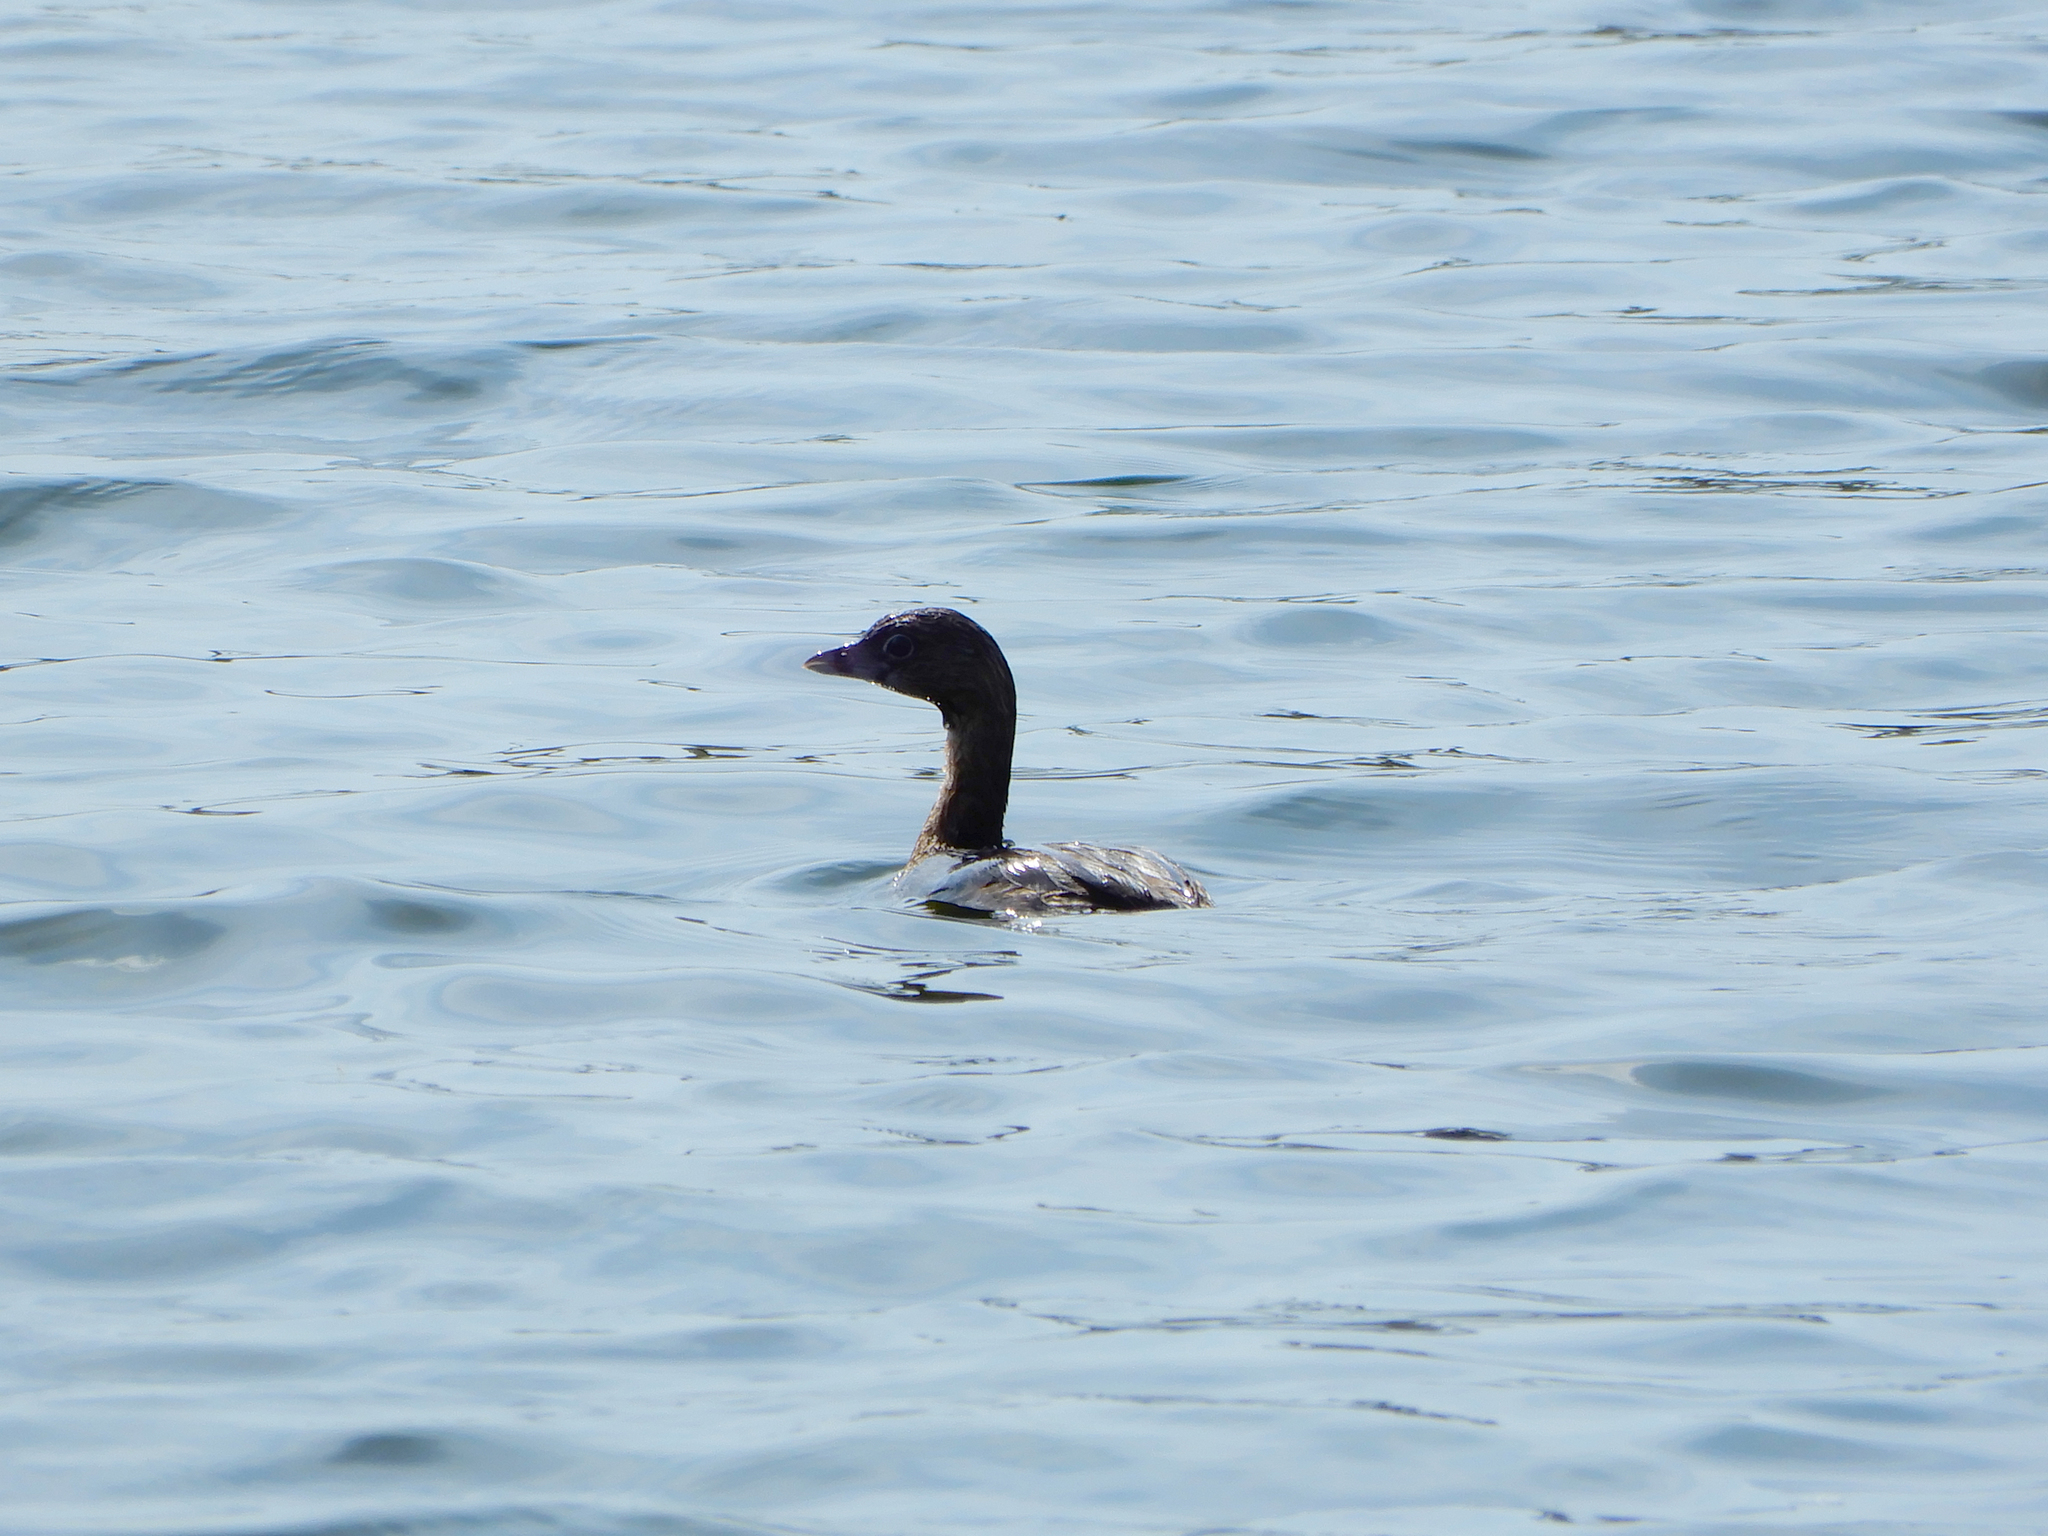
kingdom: Animalia
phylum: Chordata
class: Aves
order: Podicipediformes
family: Podicipedidae
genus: Podilymbus
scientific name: Podilymbus podiceps
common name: Pied-billed grebe
